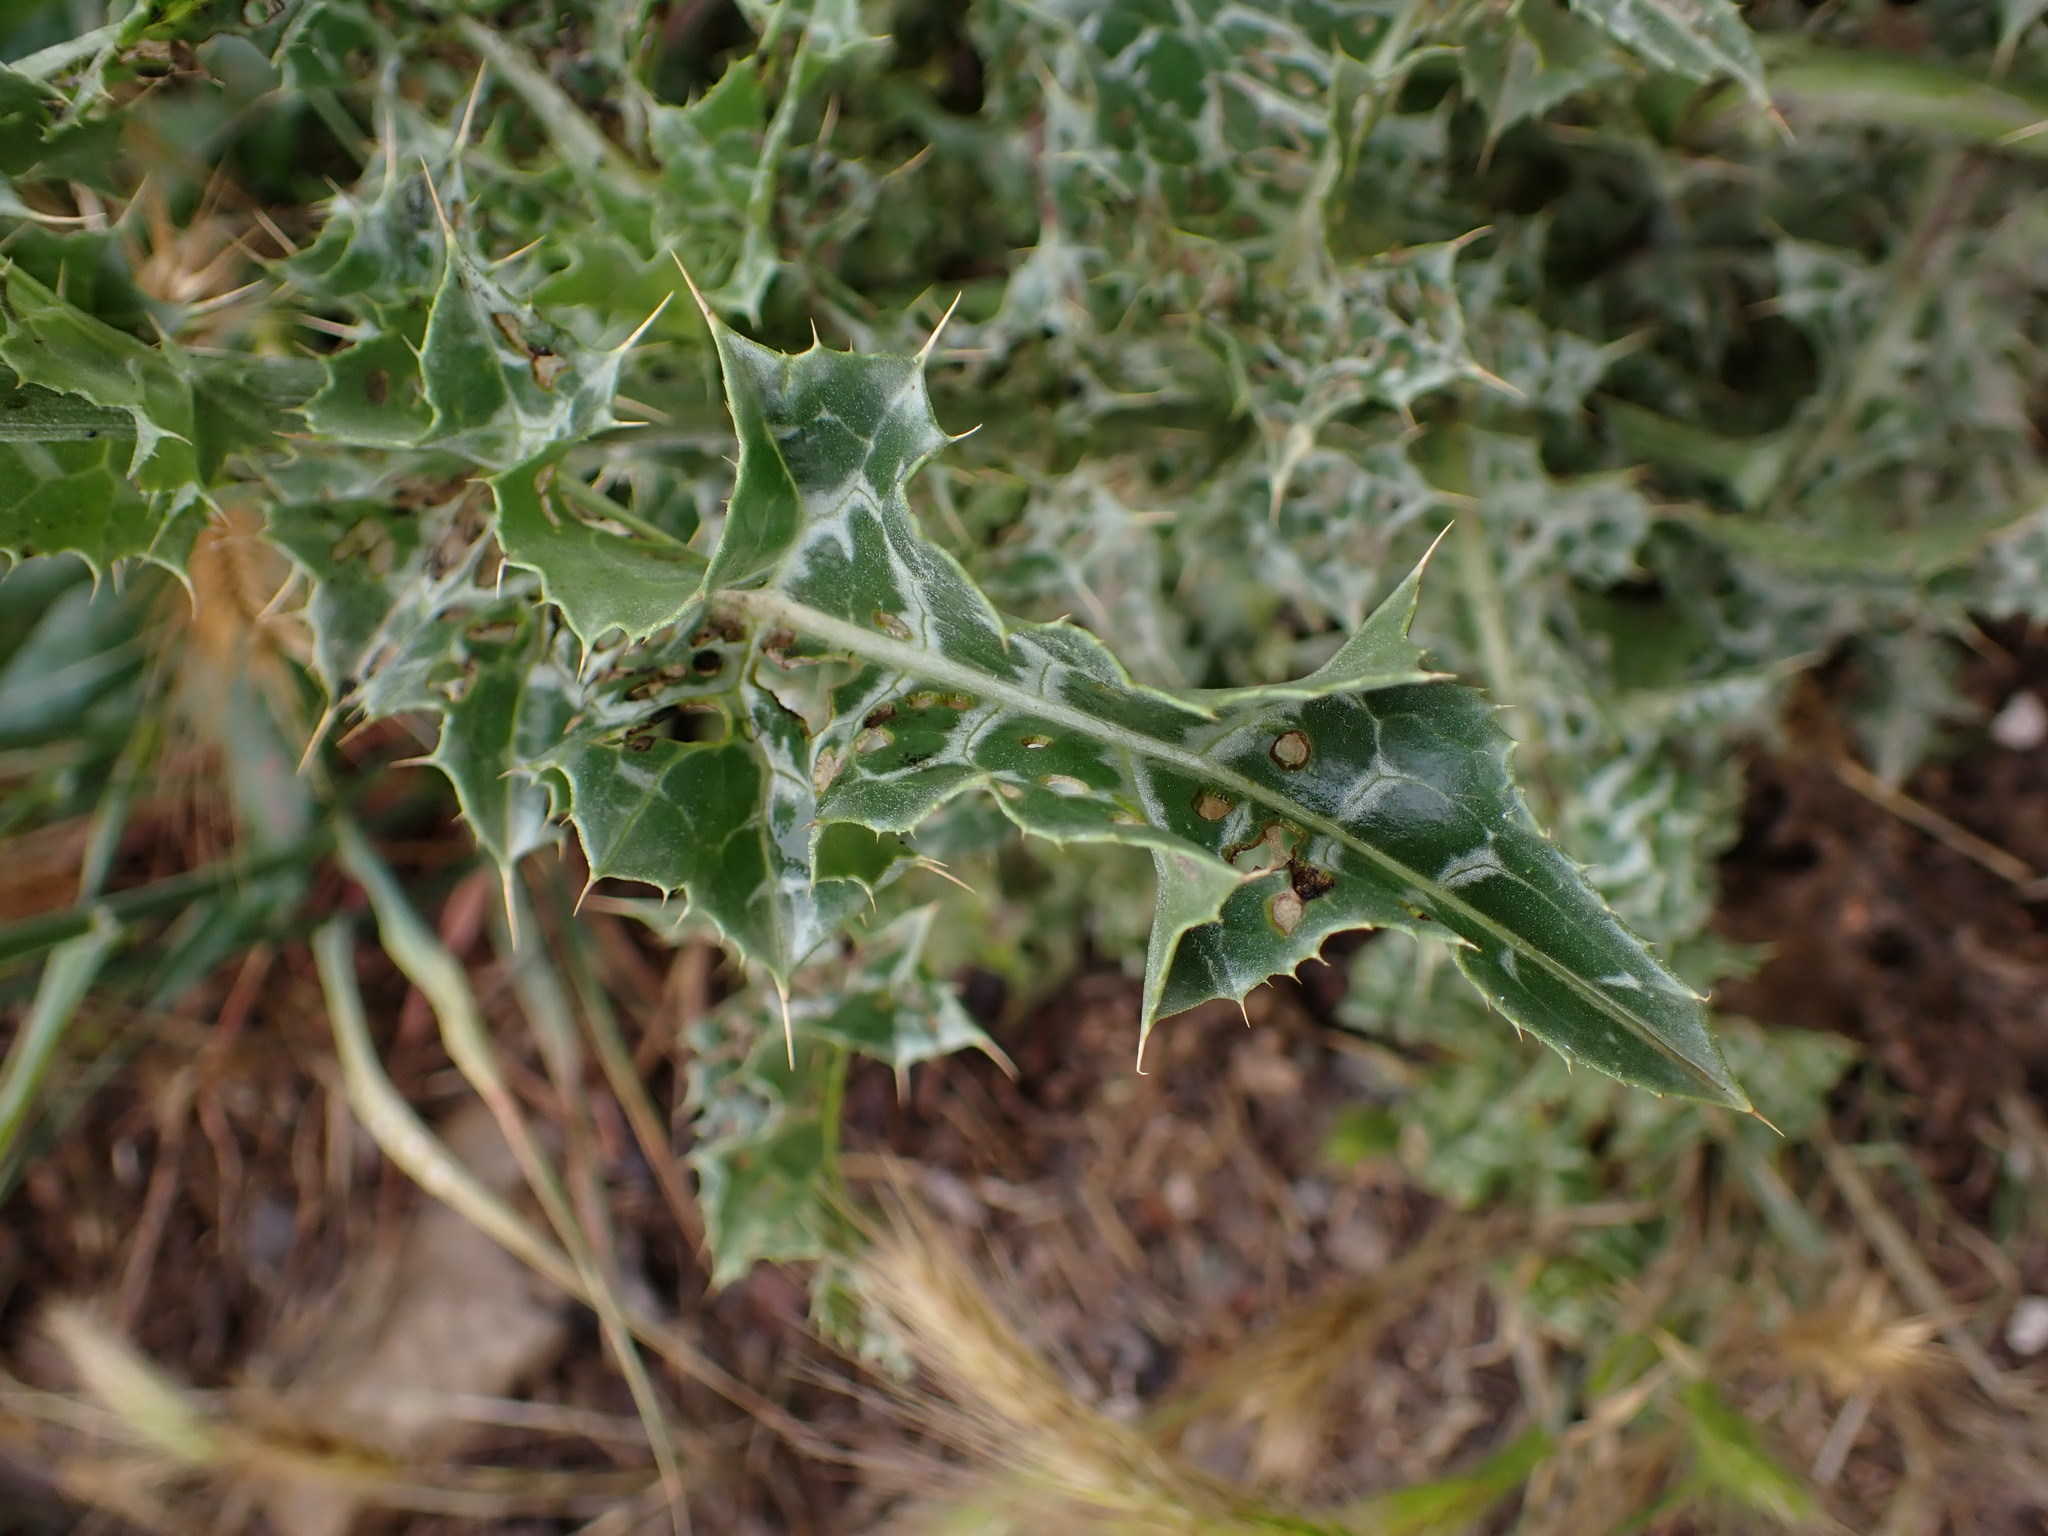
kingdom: Plantae
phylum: Tracheophyta
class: Magnoliopsida
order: Asterales
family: Asteraceae
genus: Silybum
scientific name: Silybum marianum
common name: Milk thistle
